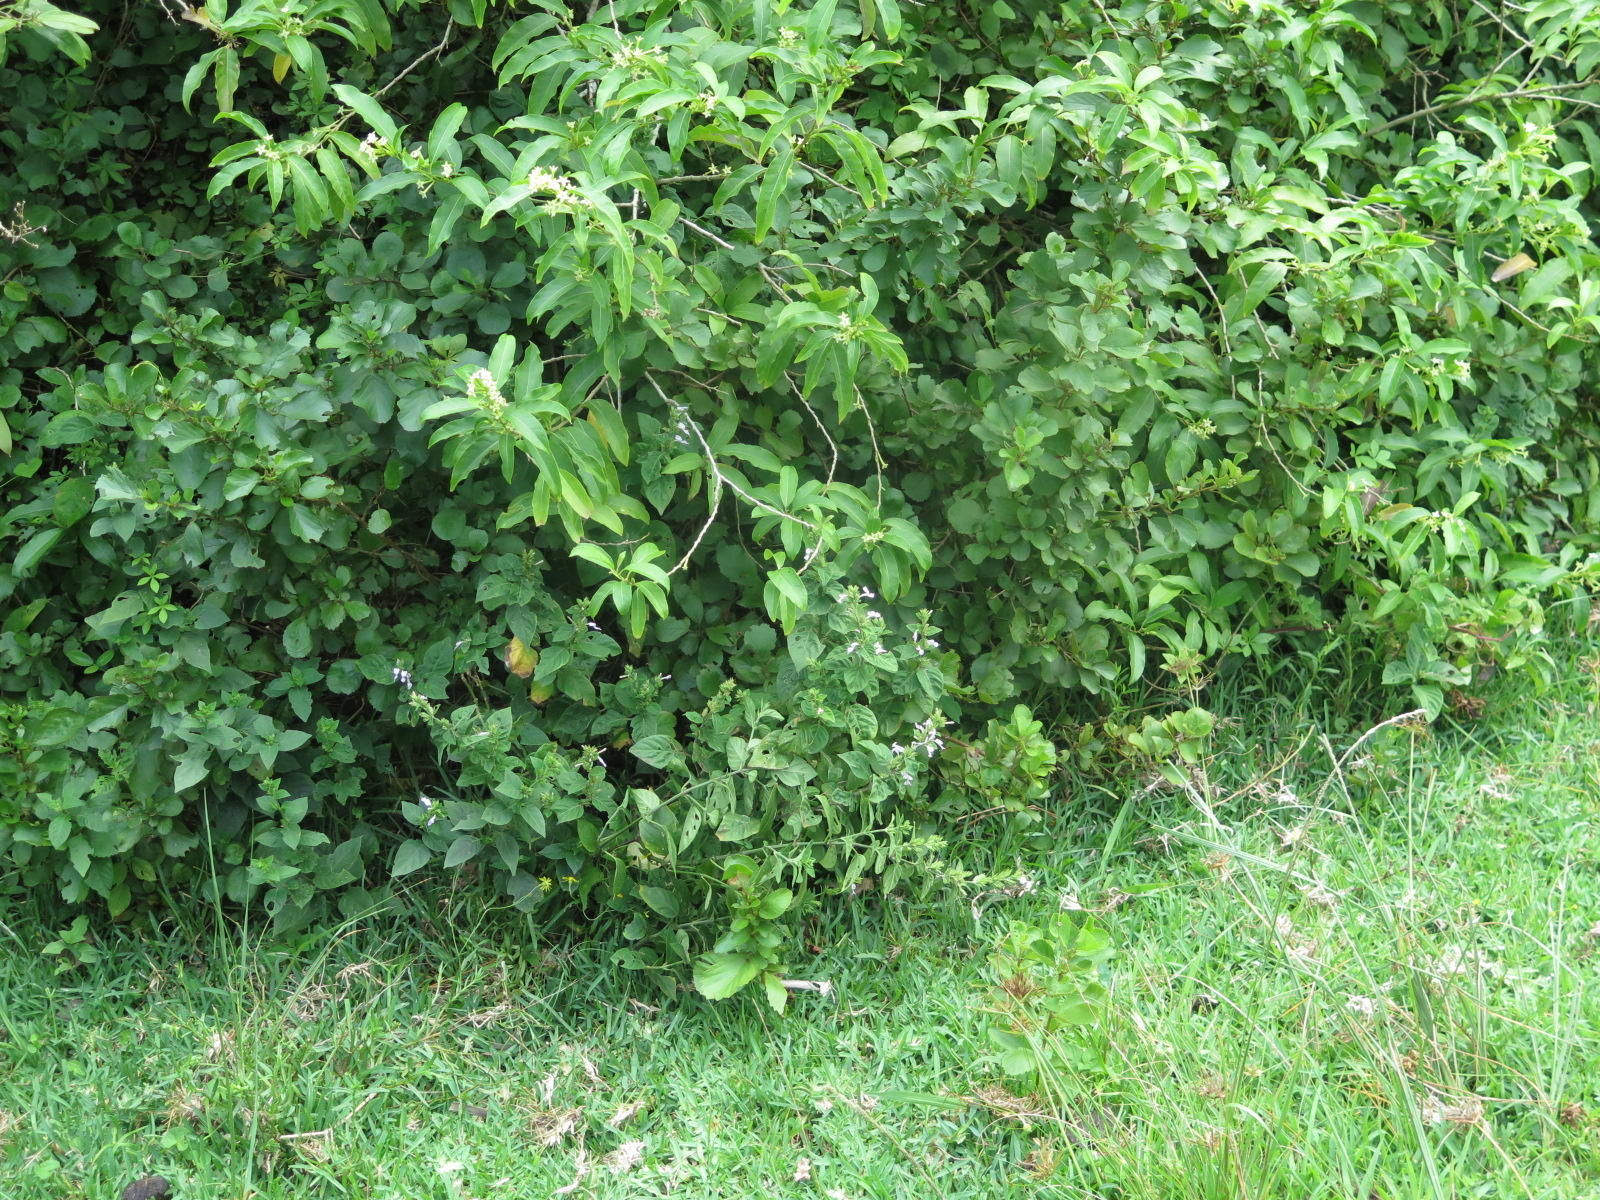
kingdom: Plantae
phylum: Tracheophyta
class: Magnoliopsida
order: Lamiales
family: Acanthaceae
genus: Hypoestes
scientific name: Hypoestes forskaolii
